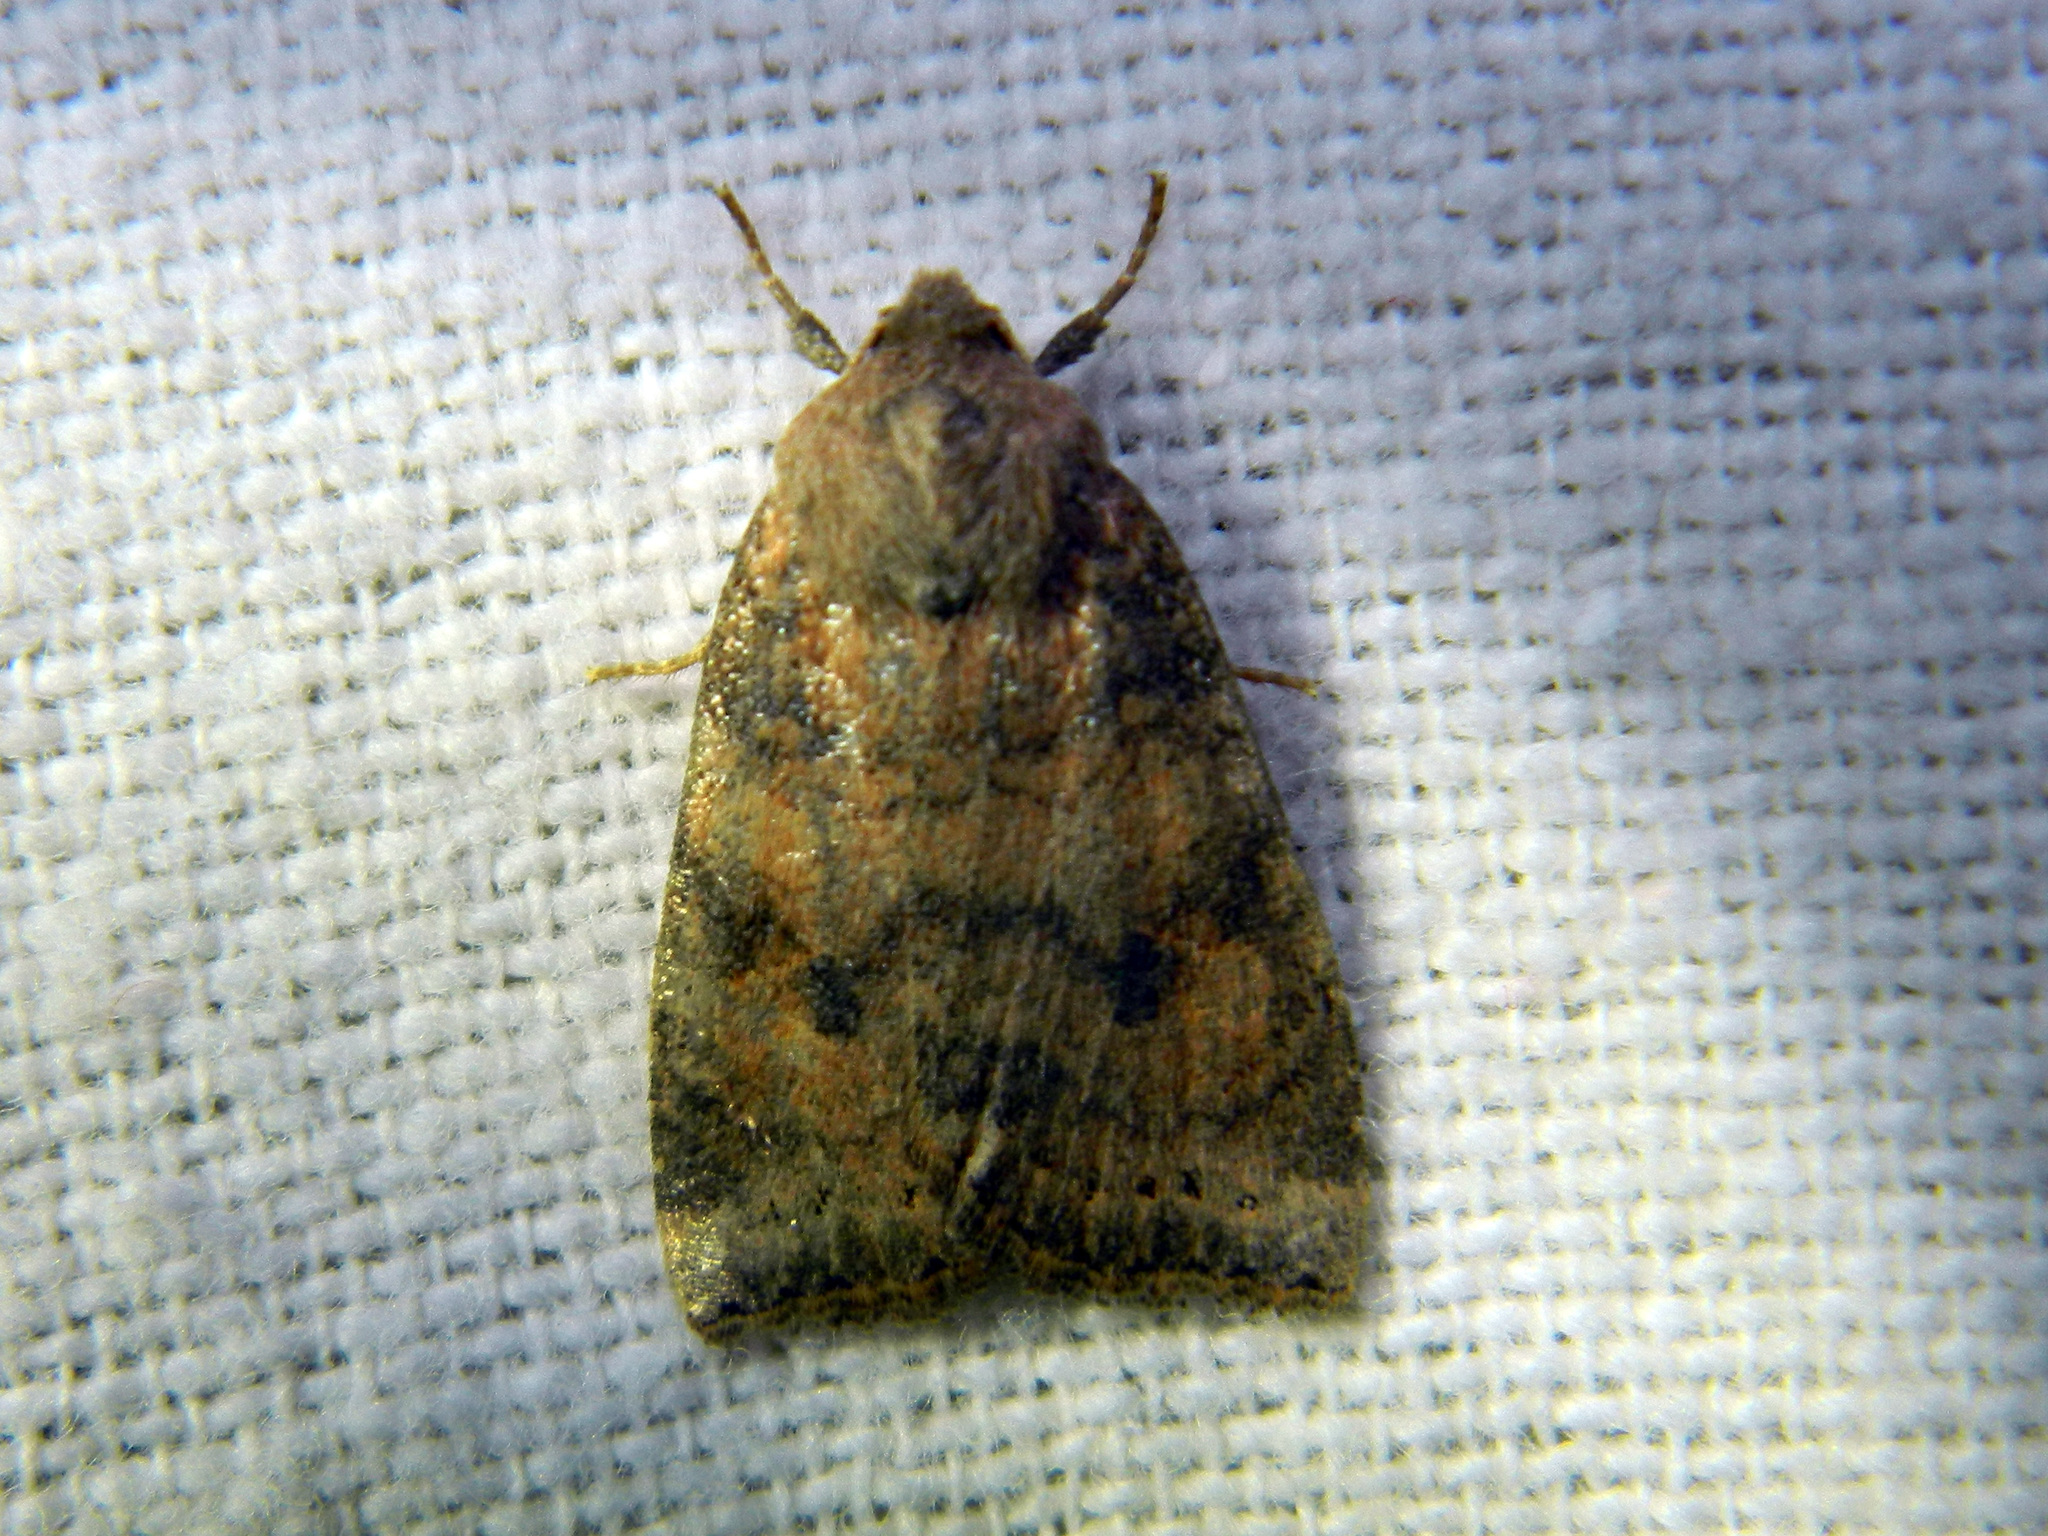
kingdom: Animalia
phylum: Arthropoda
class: Insecta
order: Lepidoptera
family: Noctuidae
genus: Anathix
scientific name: Anathix puta
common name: Puta sallow
